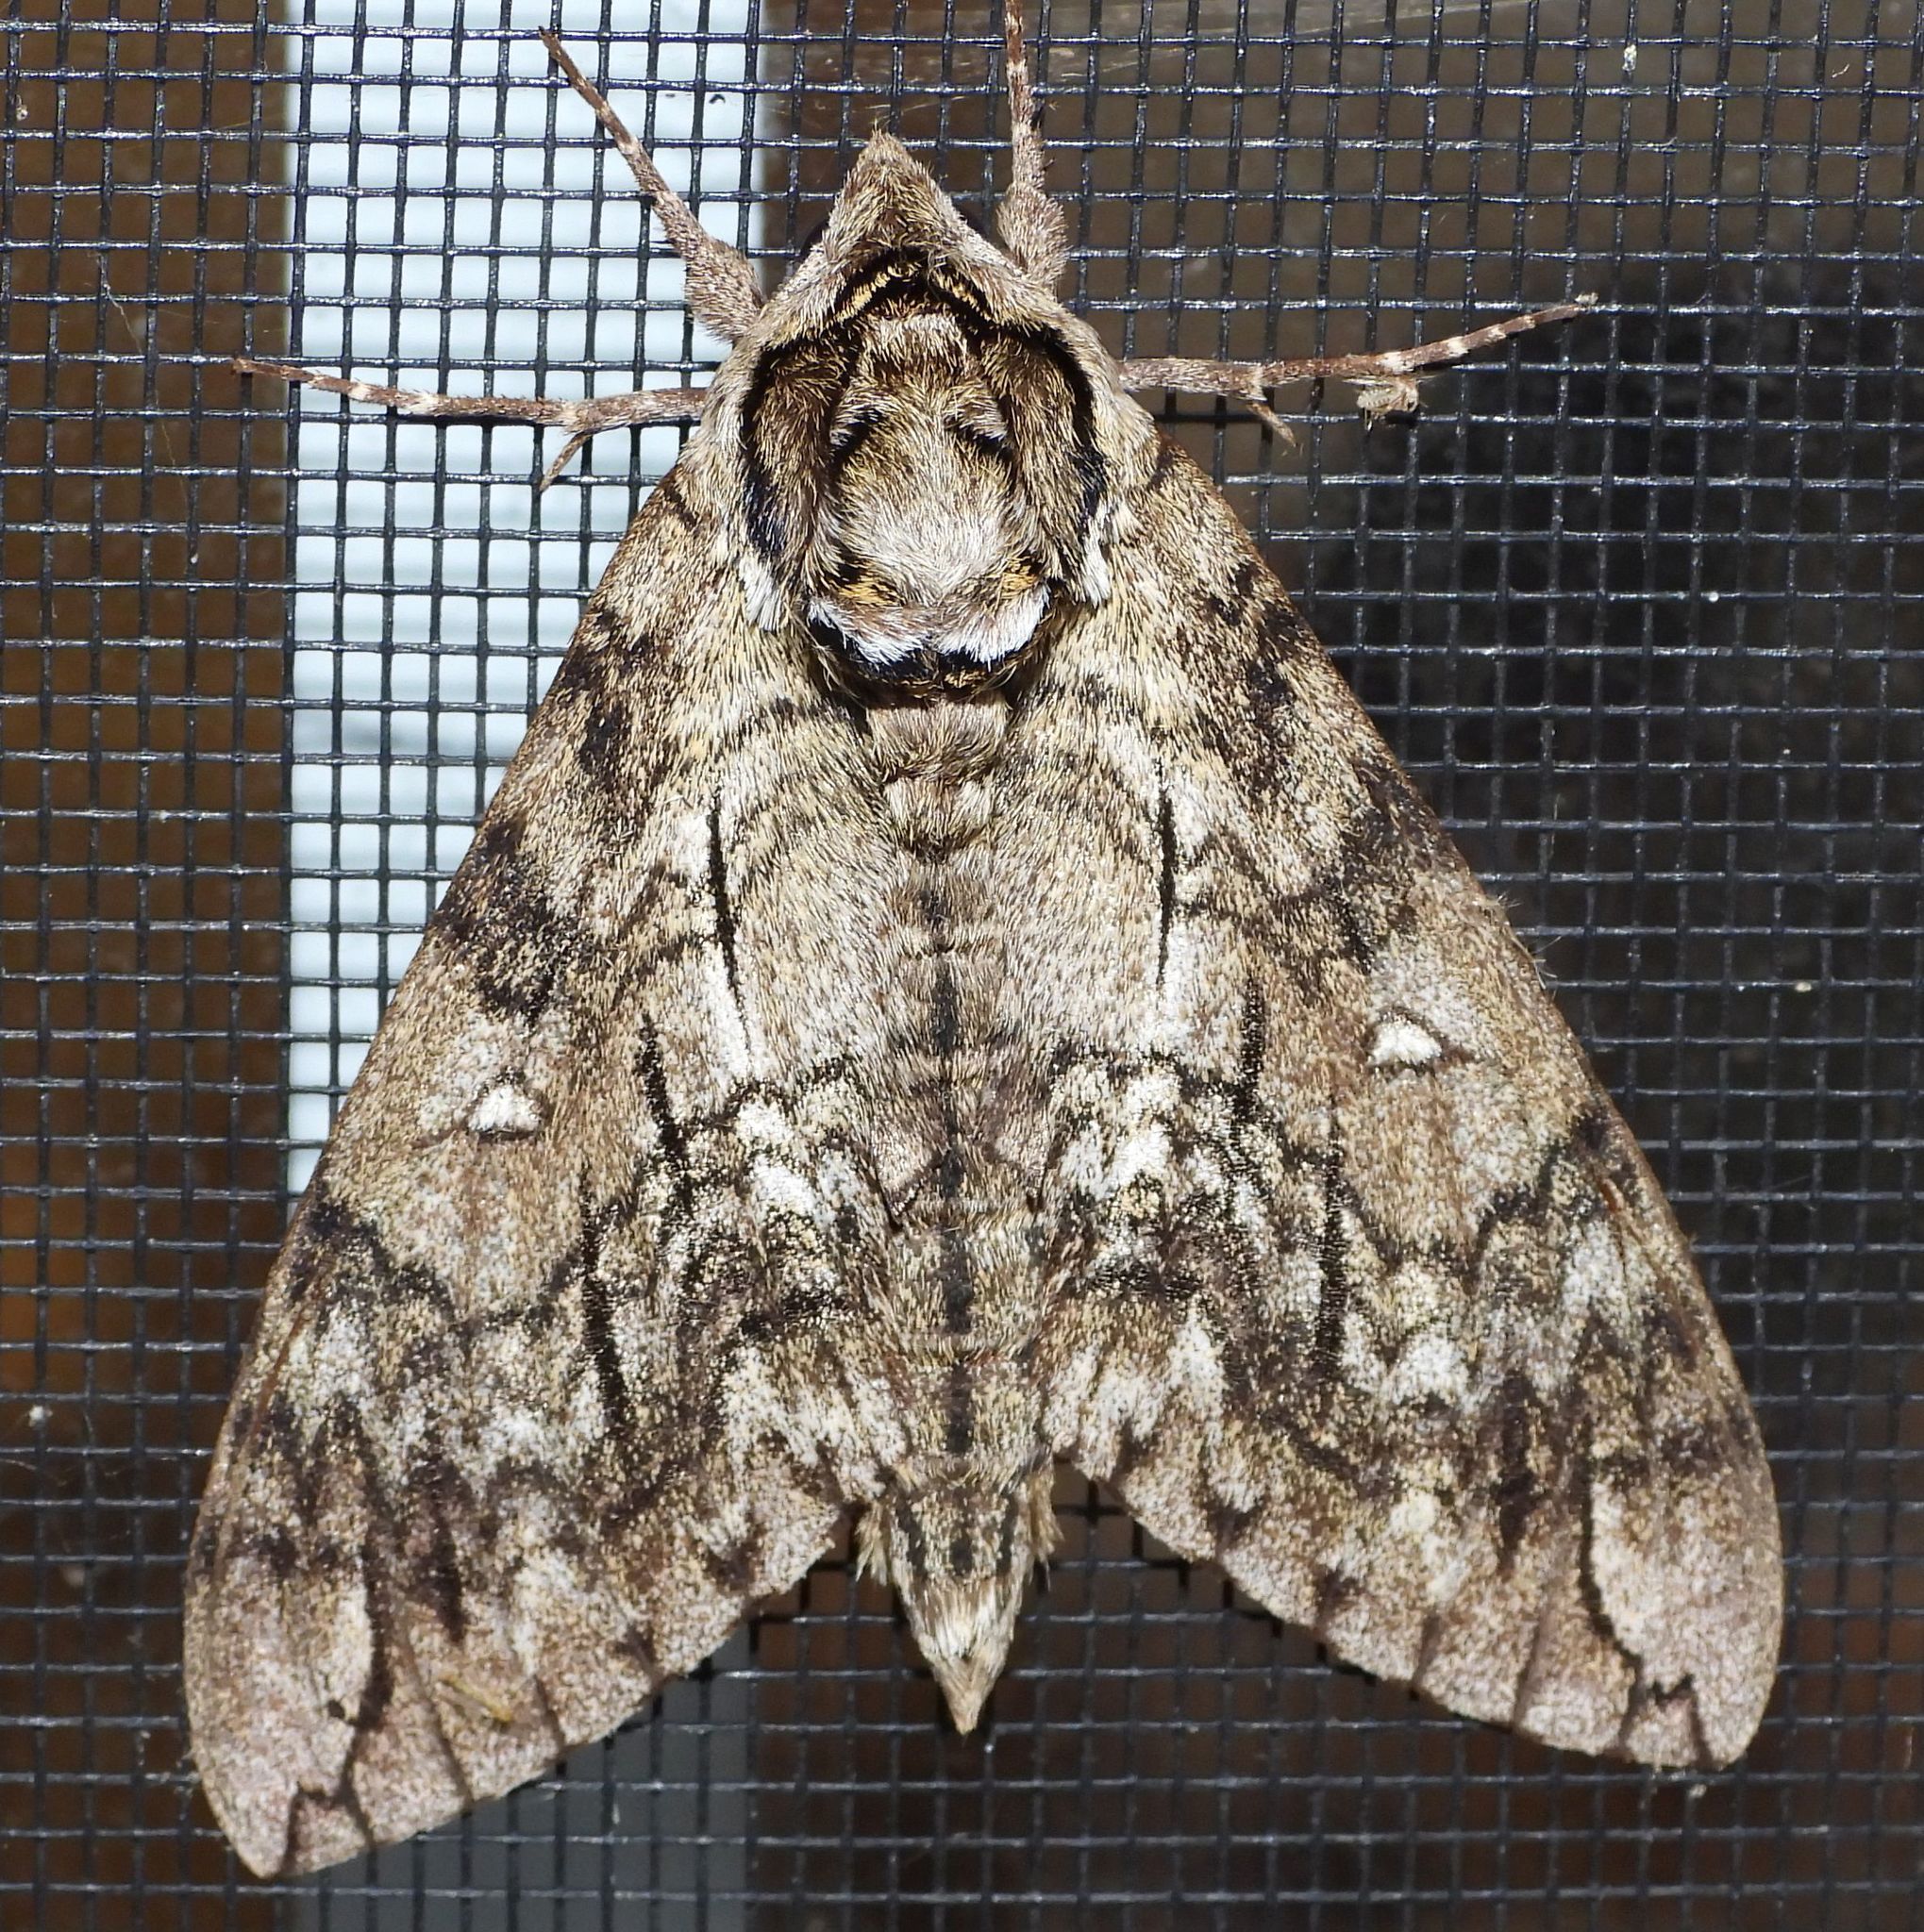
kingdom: Animalia
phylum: Arthropoda
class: Insecta
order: Lepidoptera
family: Sphingidae
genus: Ceratomia
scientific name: Ceratomia undulosa
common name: Waved sphinx
